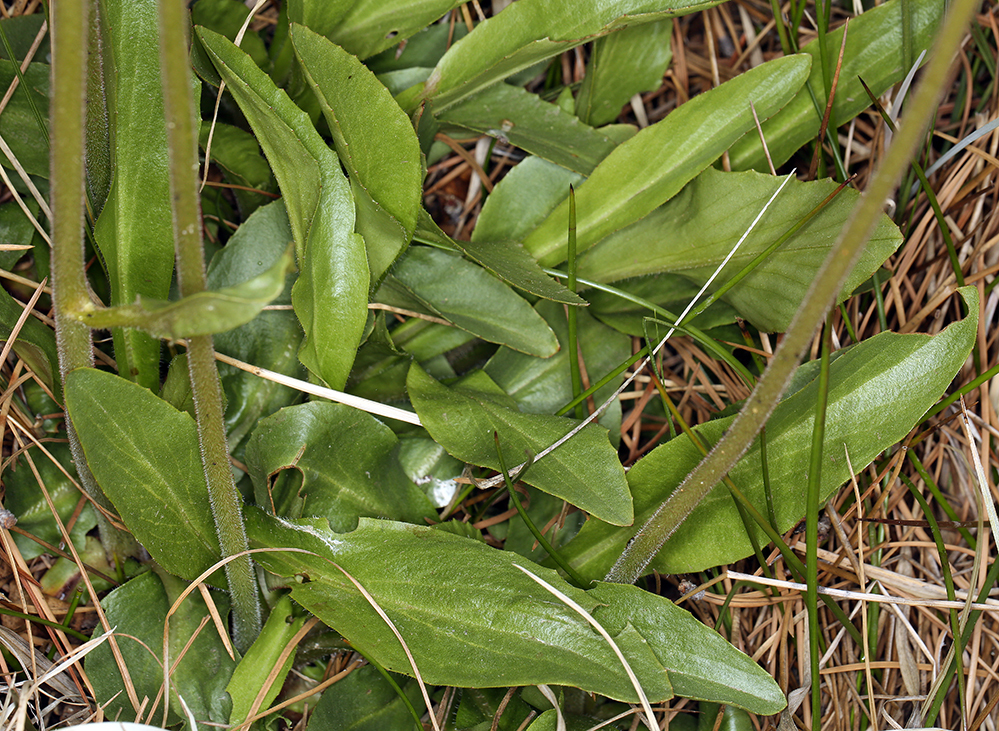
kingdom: Plantae
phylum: Tracheophyta
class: Magnoliopsida
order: Saxifragales
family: Saxifragaceae
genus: Micranthes
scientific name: Micranthes oregana
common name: Bog saxifrage
